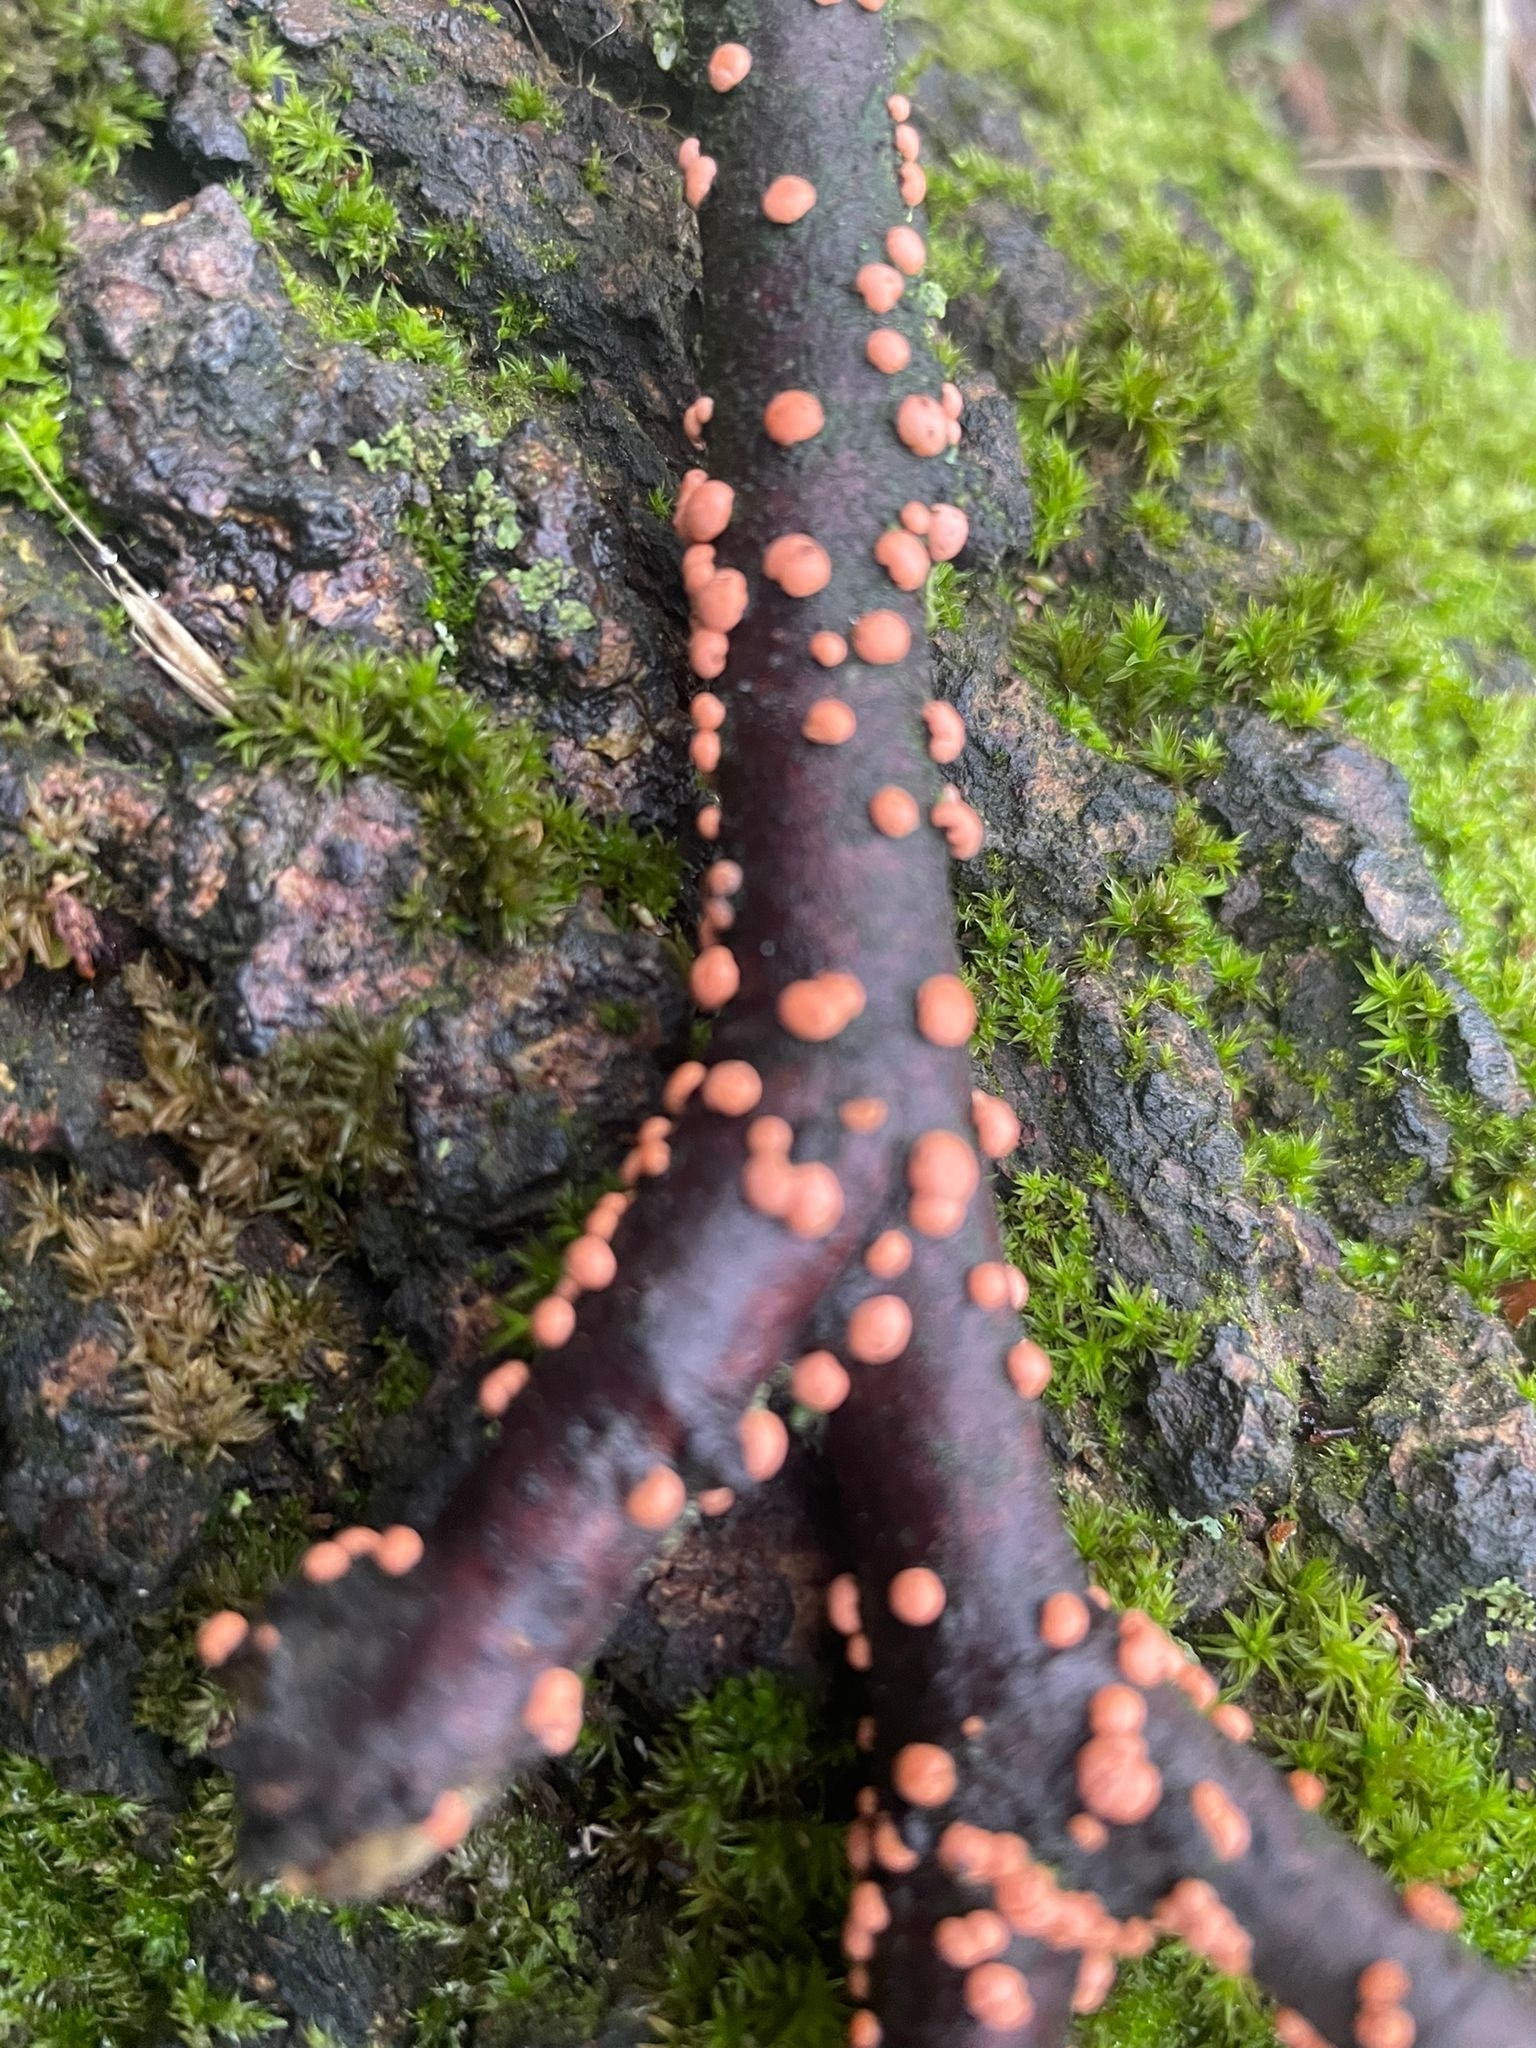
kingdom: Fungi
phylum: Ascomycota
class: Sordariomycetes
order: Hypocreales
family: Nectriaceae
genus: Nectria
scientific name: Nectria cinnabarina
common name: Coral spot
